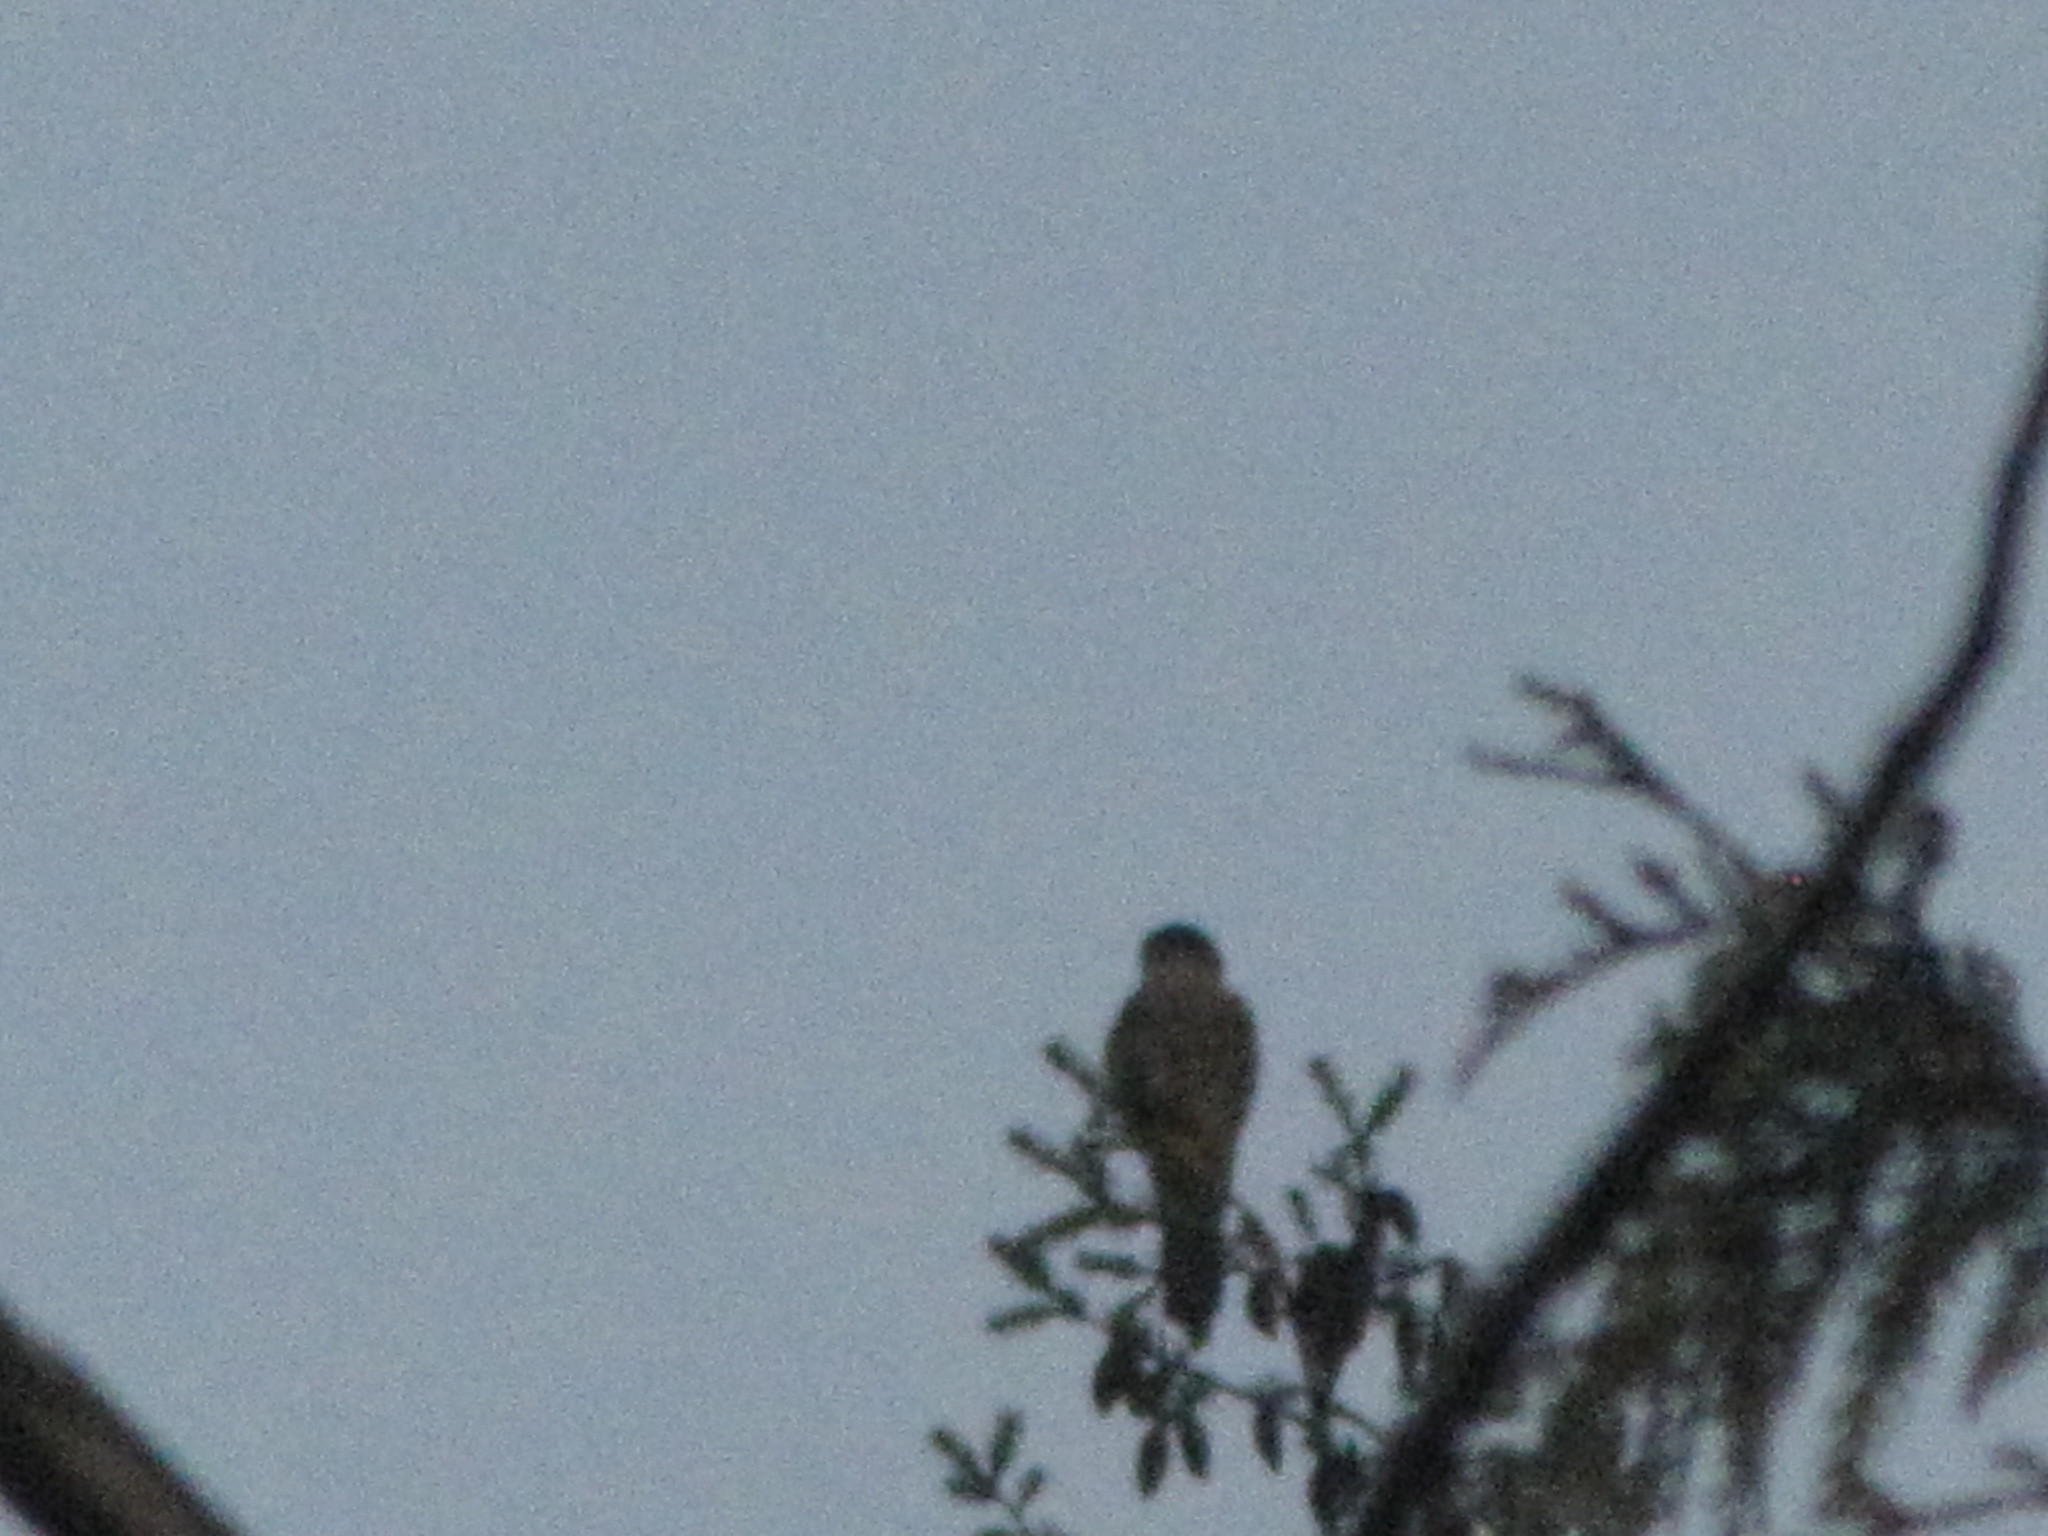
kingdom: Animalia
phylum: Chordata
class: Aves
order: Falconiformes
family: Falconidae
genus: Falco
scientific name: Falco columbarius
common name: Merlin
